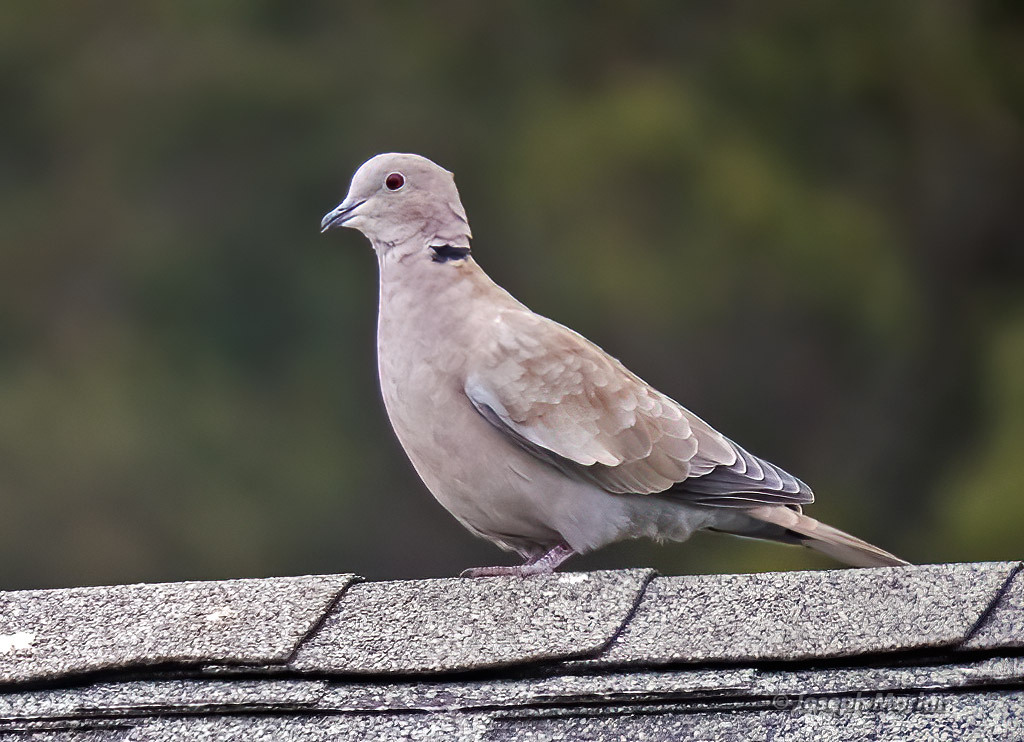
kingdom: Animalia
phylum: Chordata
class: Aves
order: Columbiformes
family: Columbidae
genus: Streptopelia
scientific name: Streptopelia decaocto
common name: Eurasian collared dove
